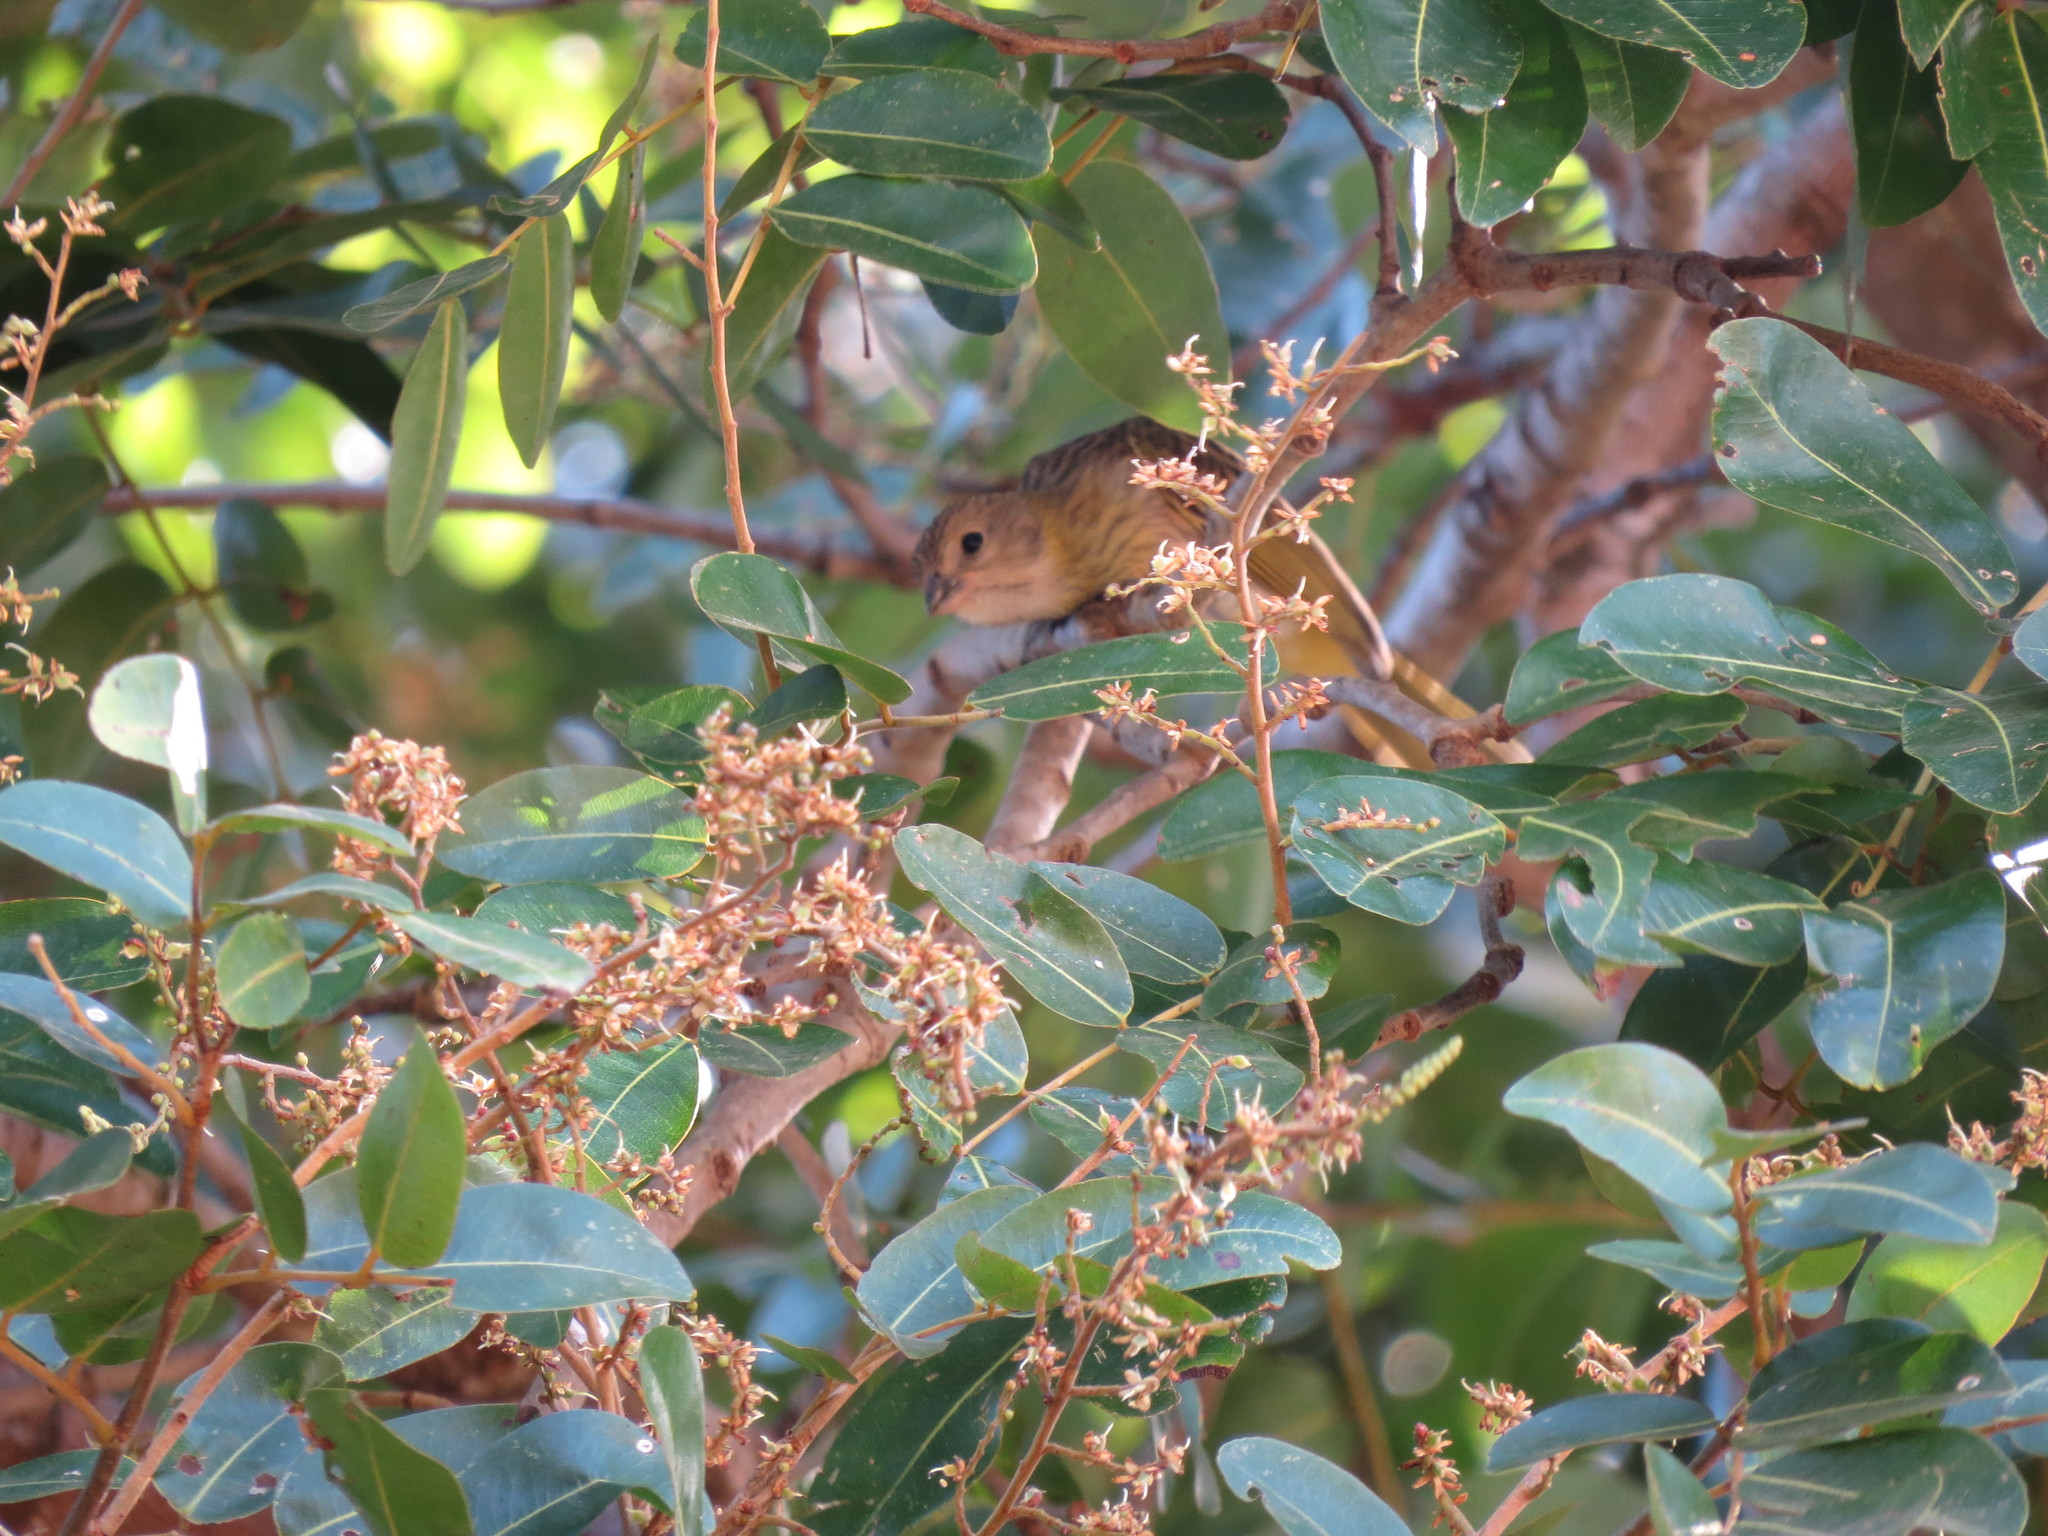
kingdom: Animalia
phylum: Chordata
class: Aves
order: Passeriformes
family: Thraupidae
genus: Sicalis
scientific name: Sicalis flaveola
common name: Saffron finch
